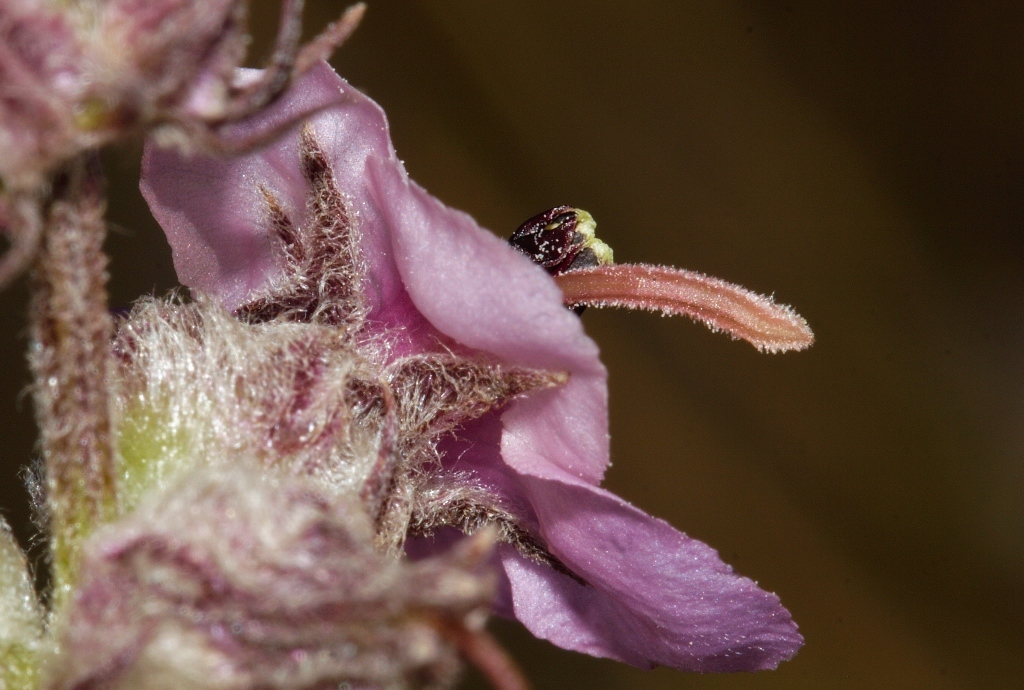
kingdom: Plantae
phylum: Tracheophyta
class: Magnoliopsida
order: Lamiales
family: Orobanchaceae
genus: Sopubia
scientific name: Sopubia karaguensis
